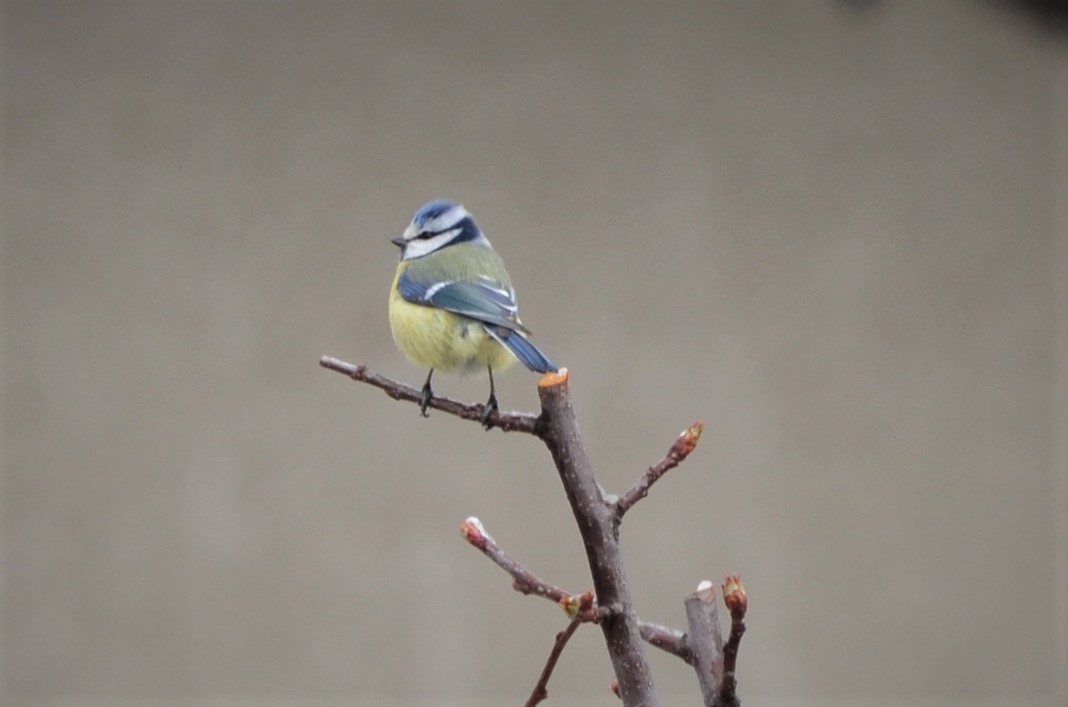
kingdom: Animalia
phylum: Chordata
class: Aves
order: Passeriformes
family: Paridae
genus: Cyanistes
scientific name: Cyanistes caeruleus
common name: Eurasian blue tit
